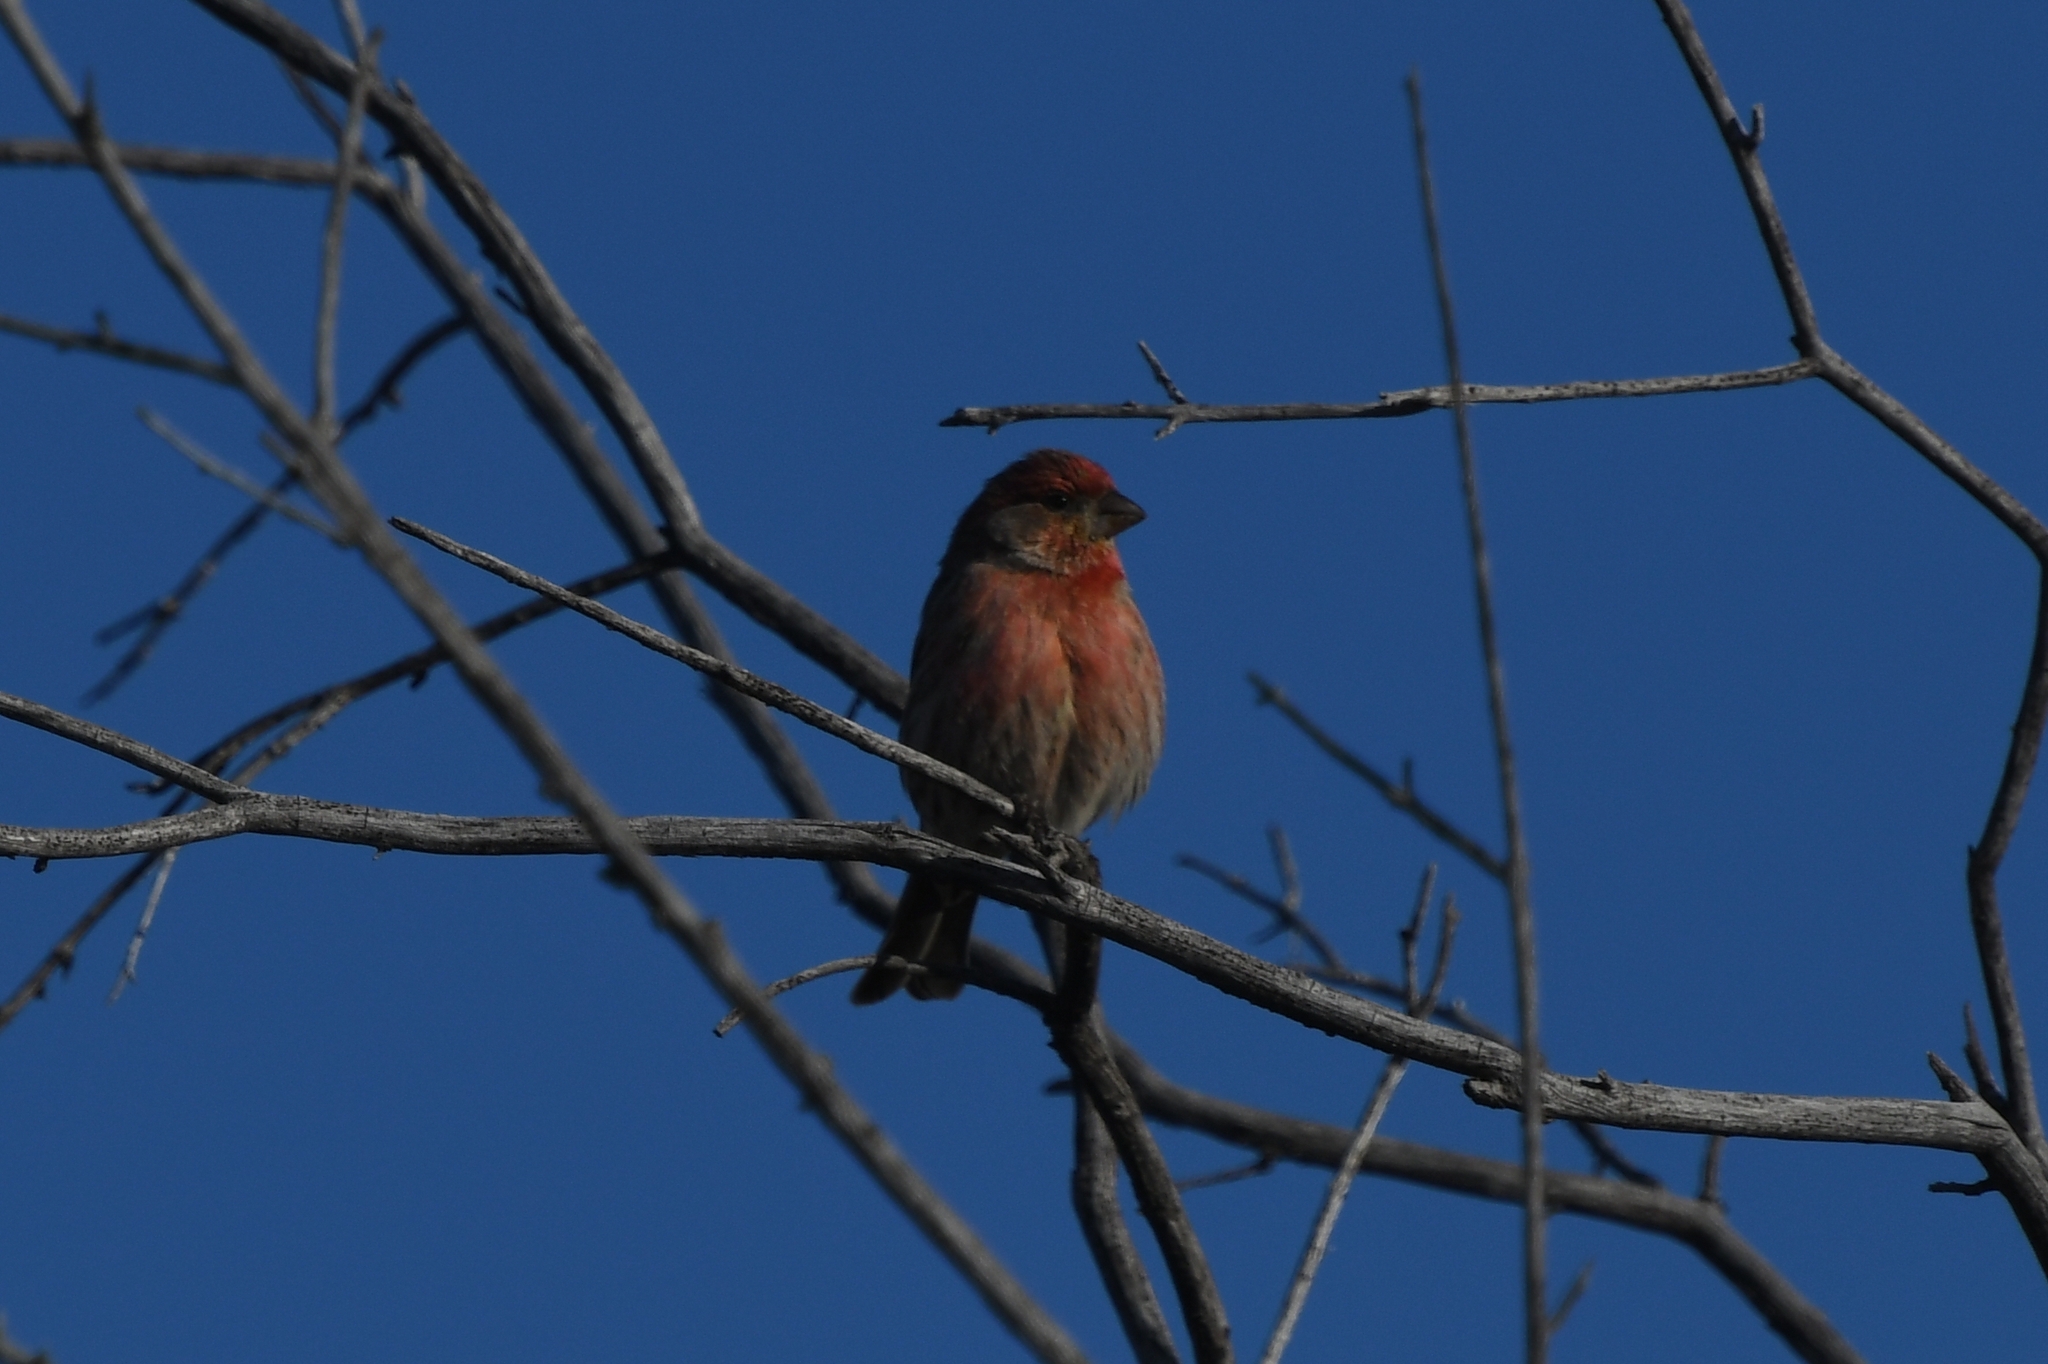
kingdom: Animalia
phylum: Chordata
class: Aves
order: Passeriformes
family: Fringillidae
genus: Haemorhous
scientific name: Haemorhous mexicanus
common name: House finch
